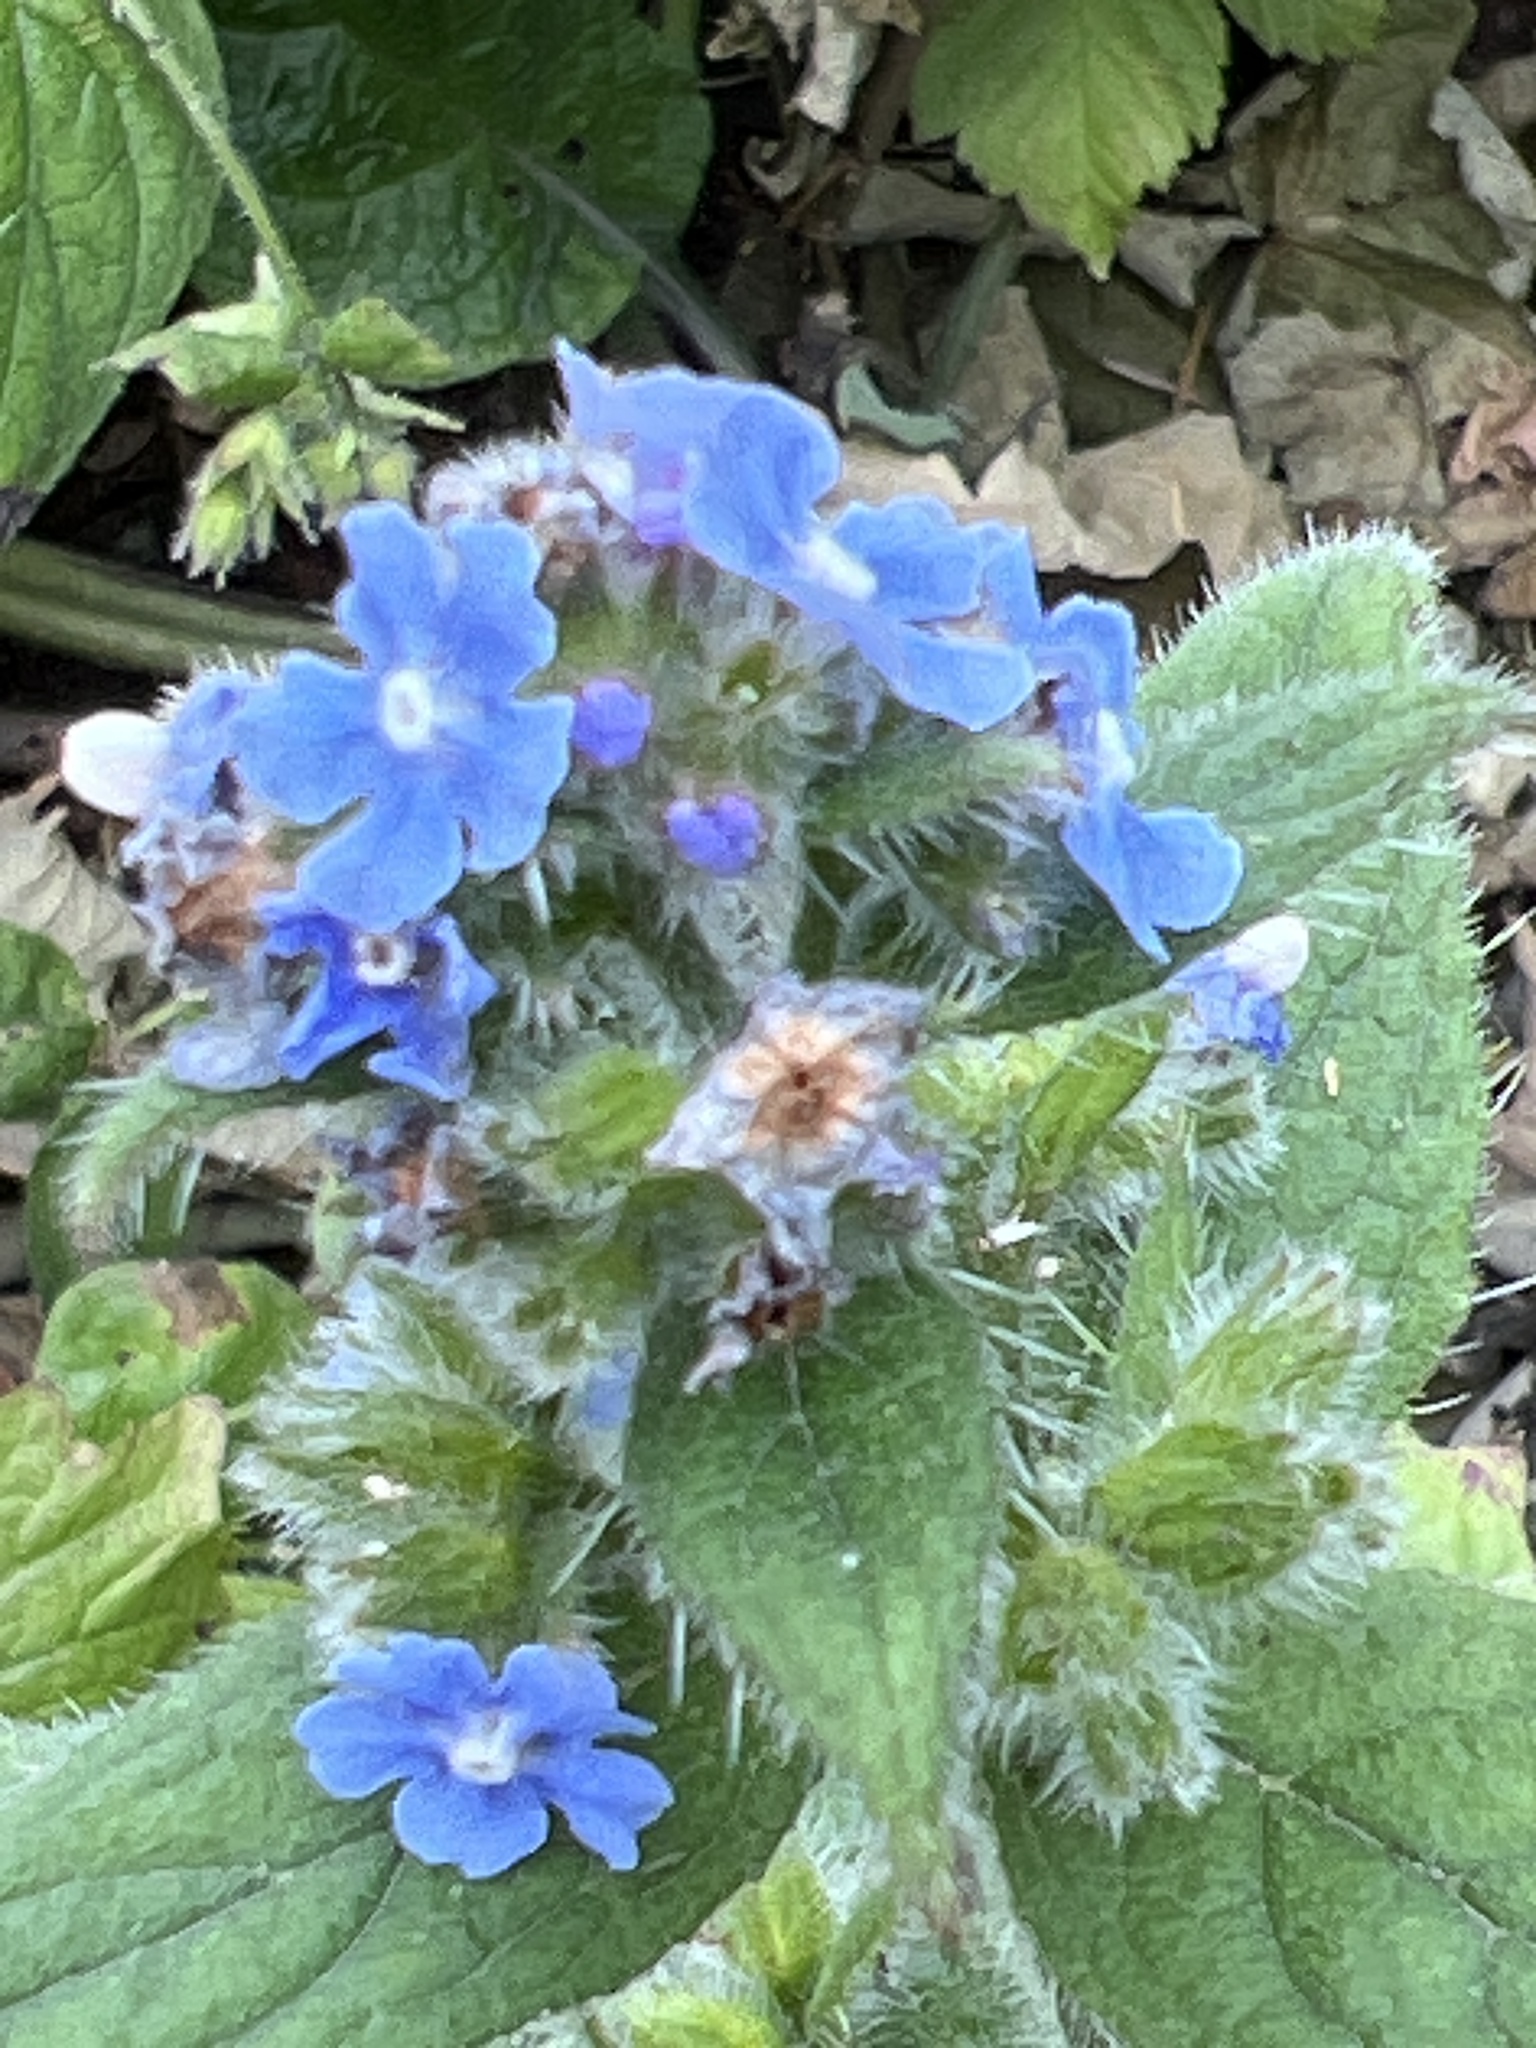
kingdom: Plantae
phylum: Tracheophyta
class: Magnoliopsida
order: Boraginales
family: Boraginaceae
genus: Pentaglottis
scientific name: Pentaglottis sempervirens
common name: Green alkanet
